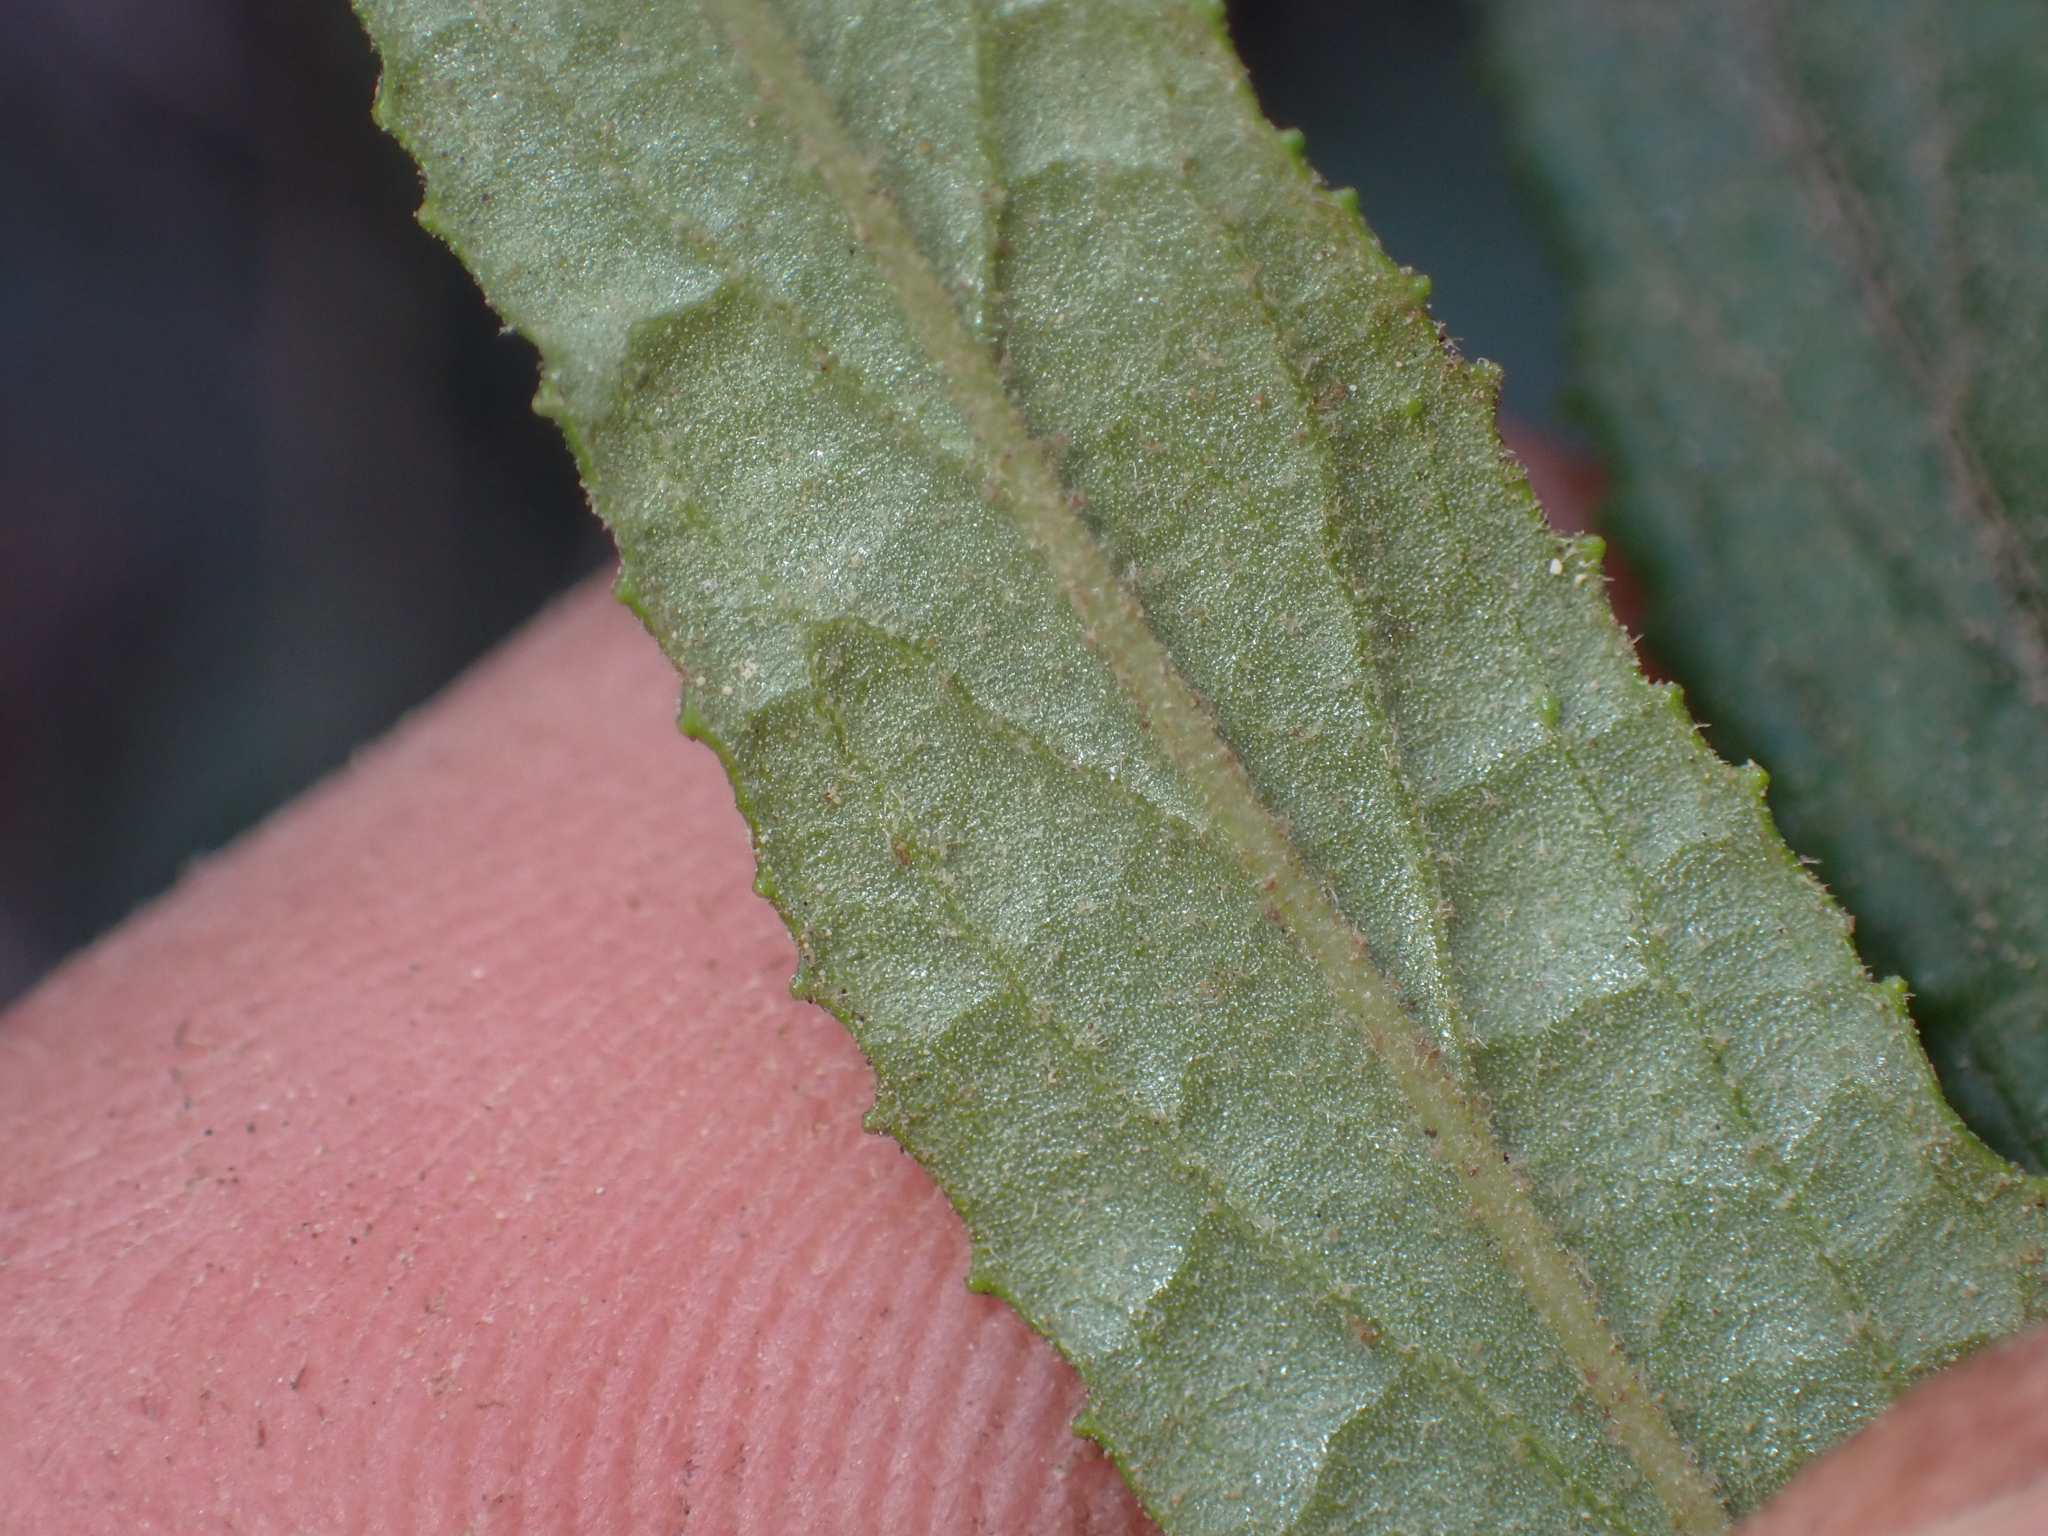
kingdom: Plantae
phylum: Tracheophyta
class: Magnoliopsida
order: Lamiales
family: Phrymaceae
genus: Diplacus
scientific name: Diplacus puniceus
